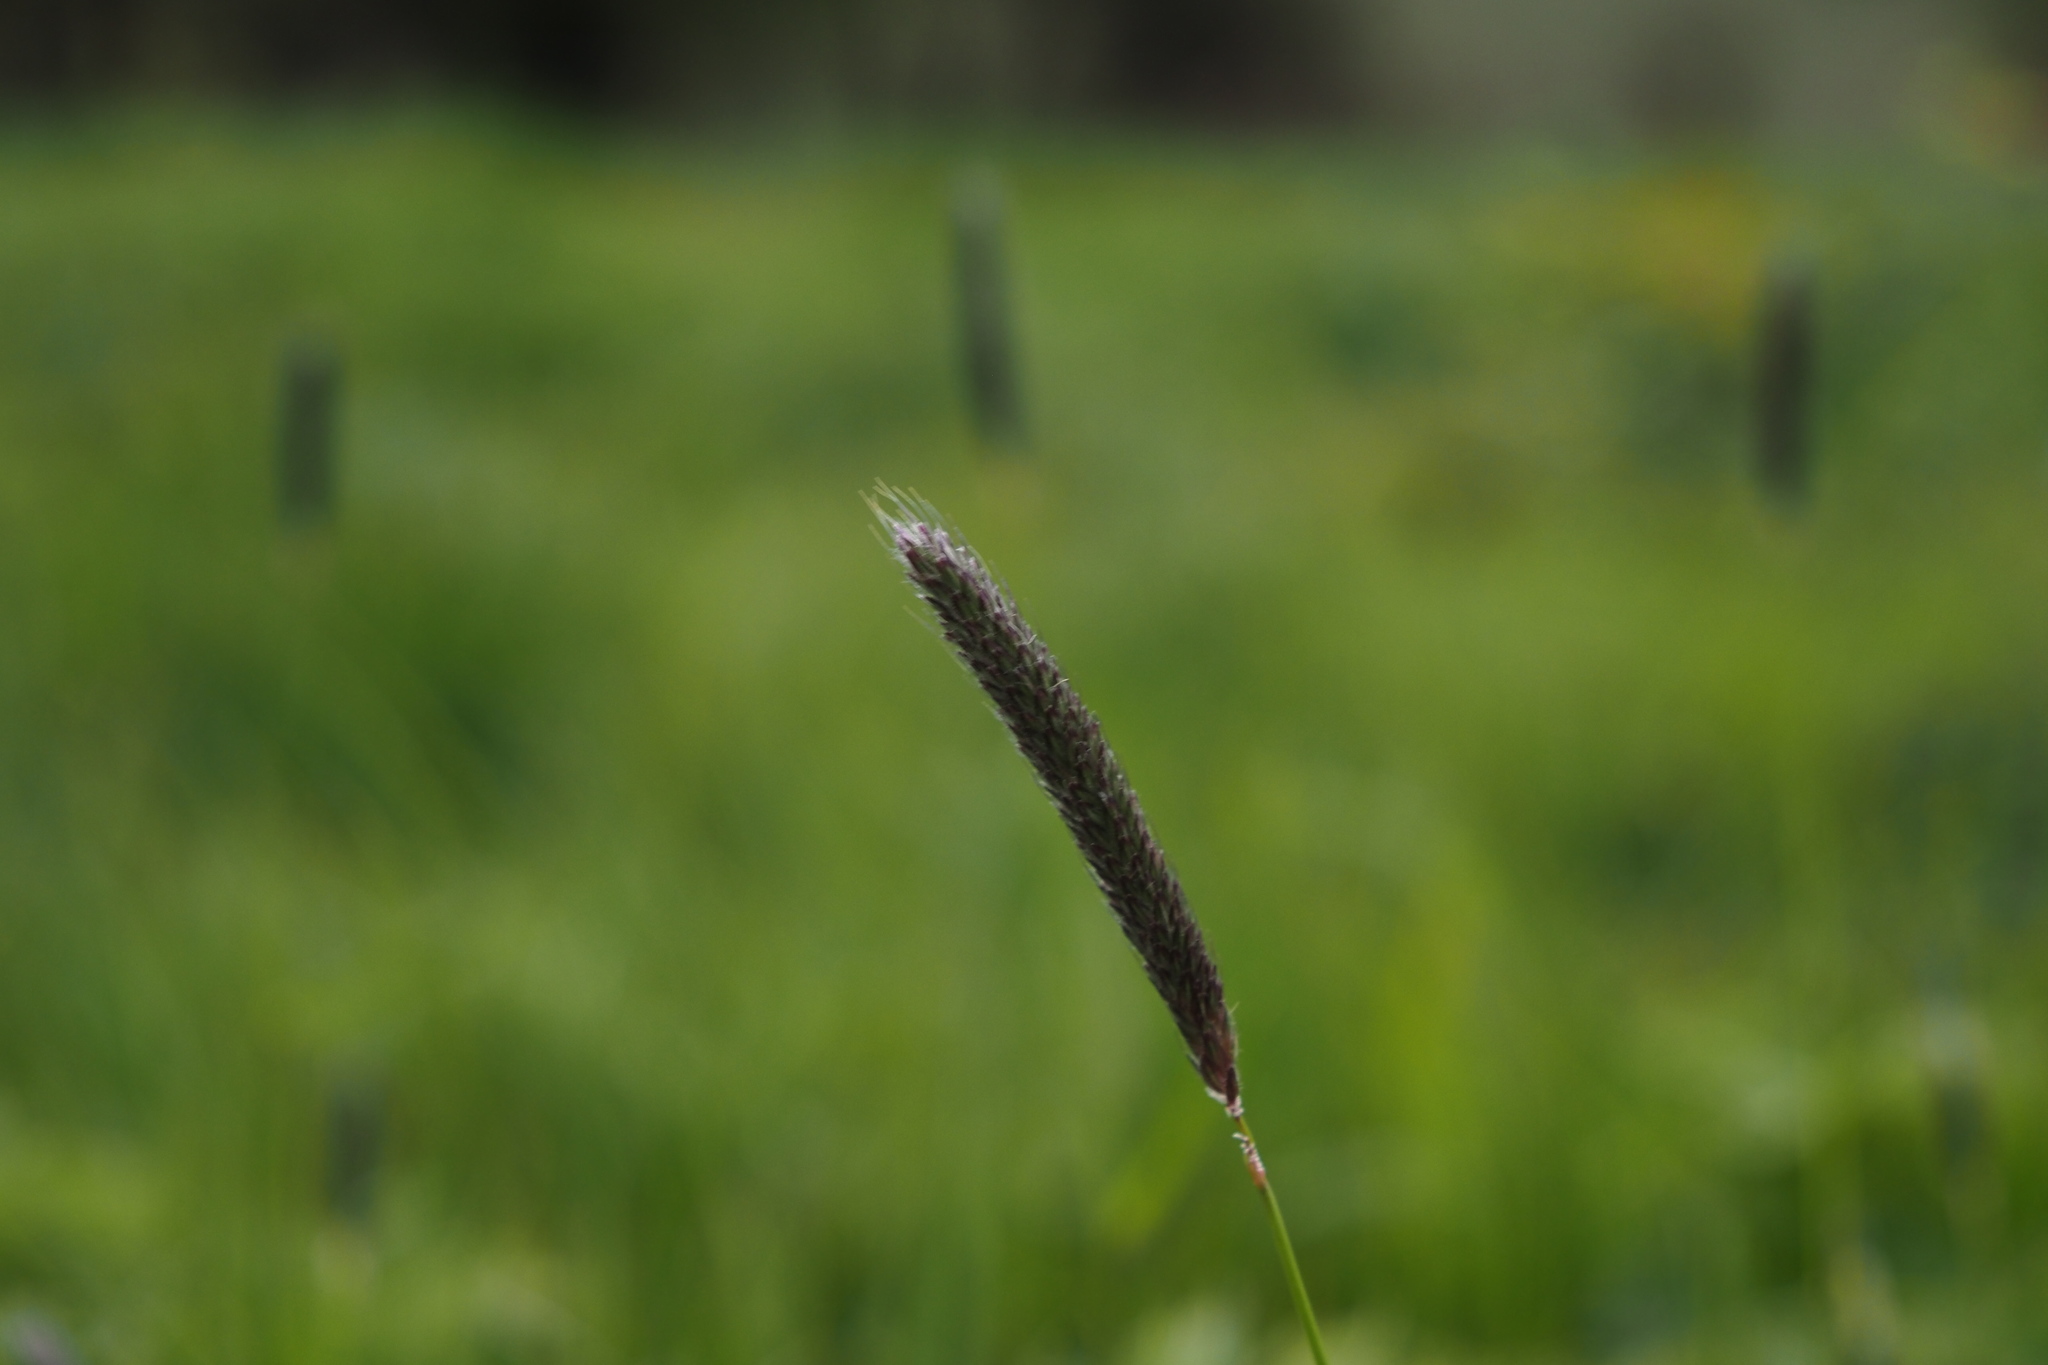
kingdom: Plantae
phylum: Tracheophyta
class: Liliopsida
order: Poales
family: Poaceae
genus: Alopecurus
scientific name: Alopecurus pratensis
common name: Meadow foxtail
